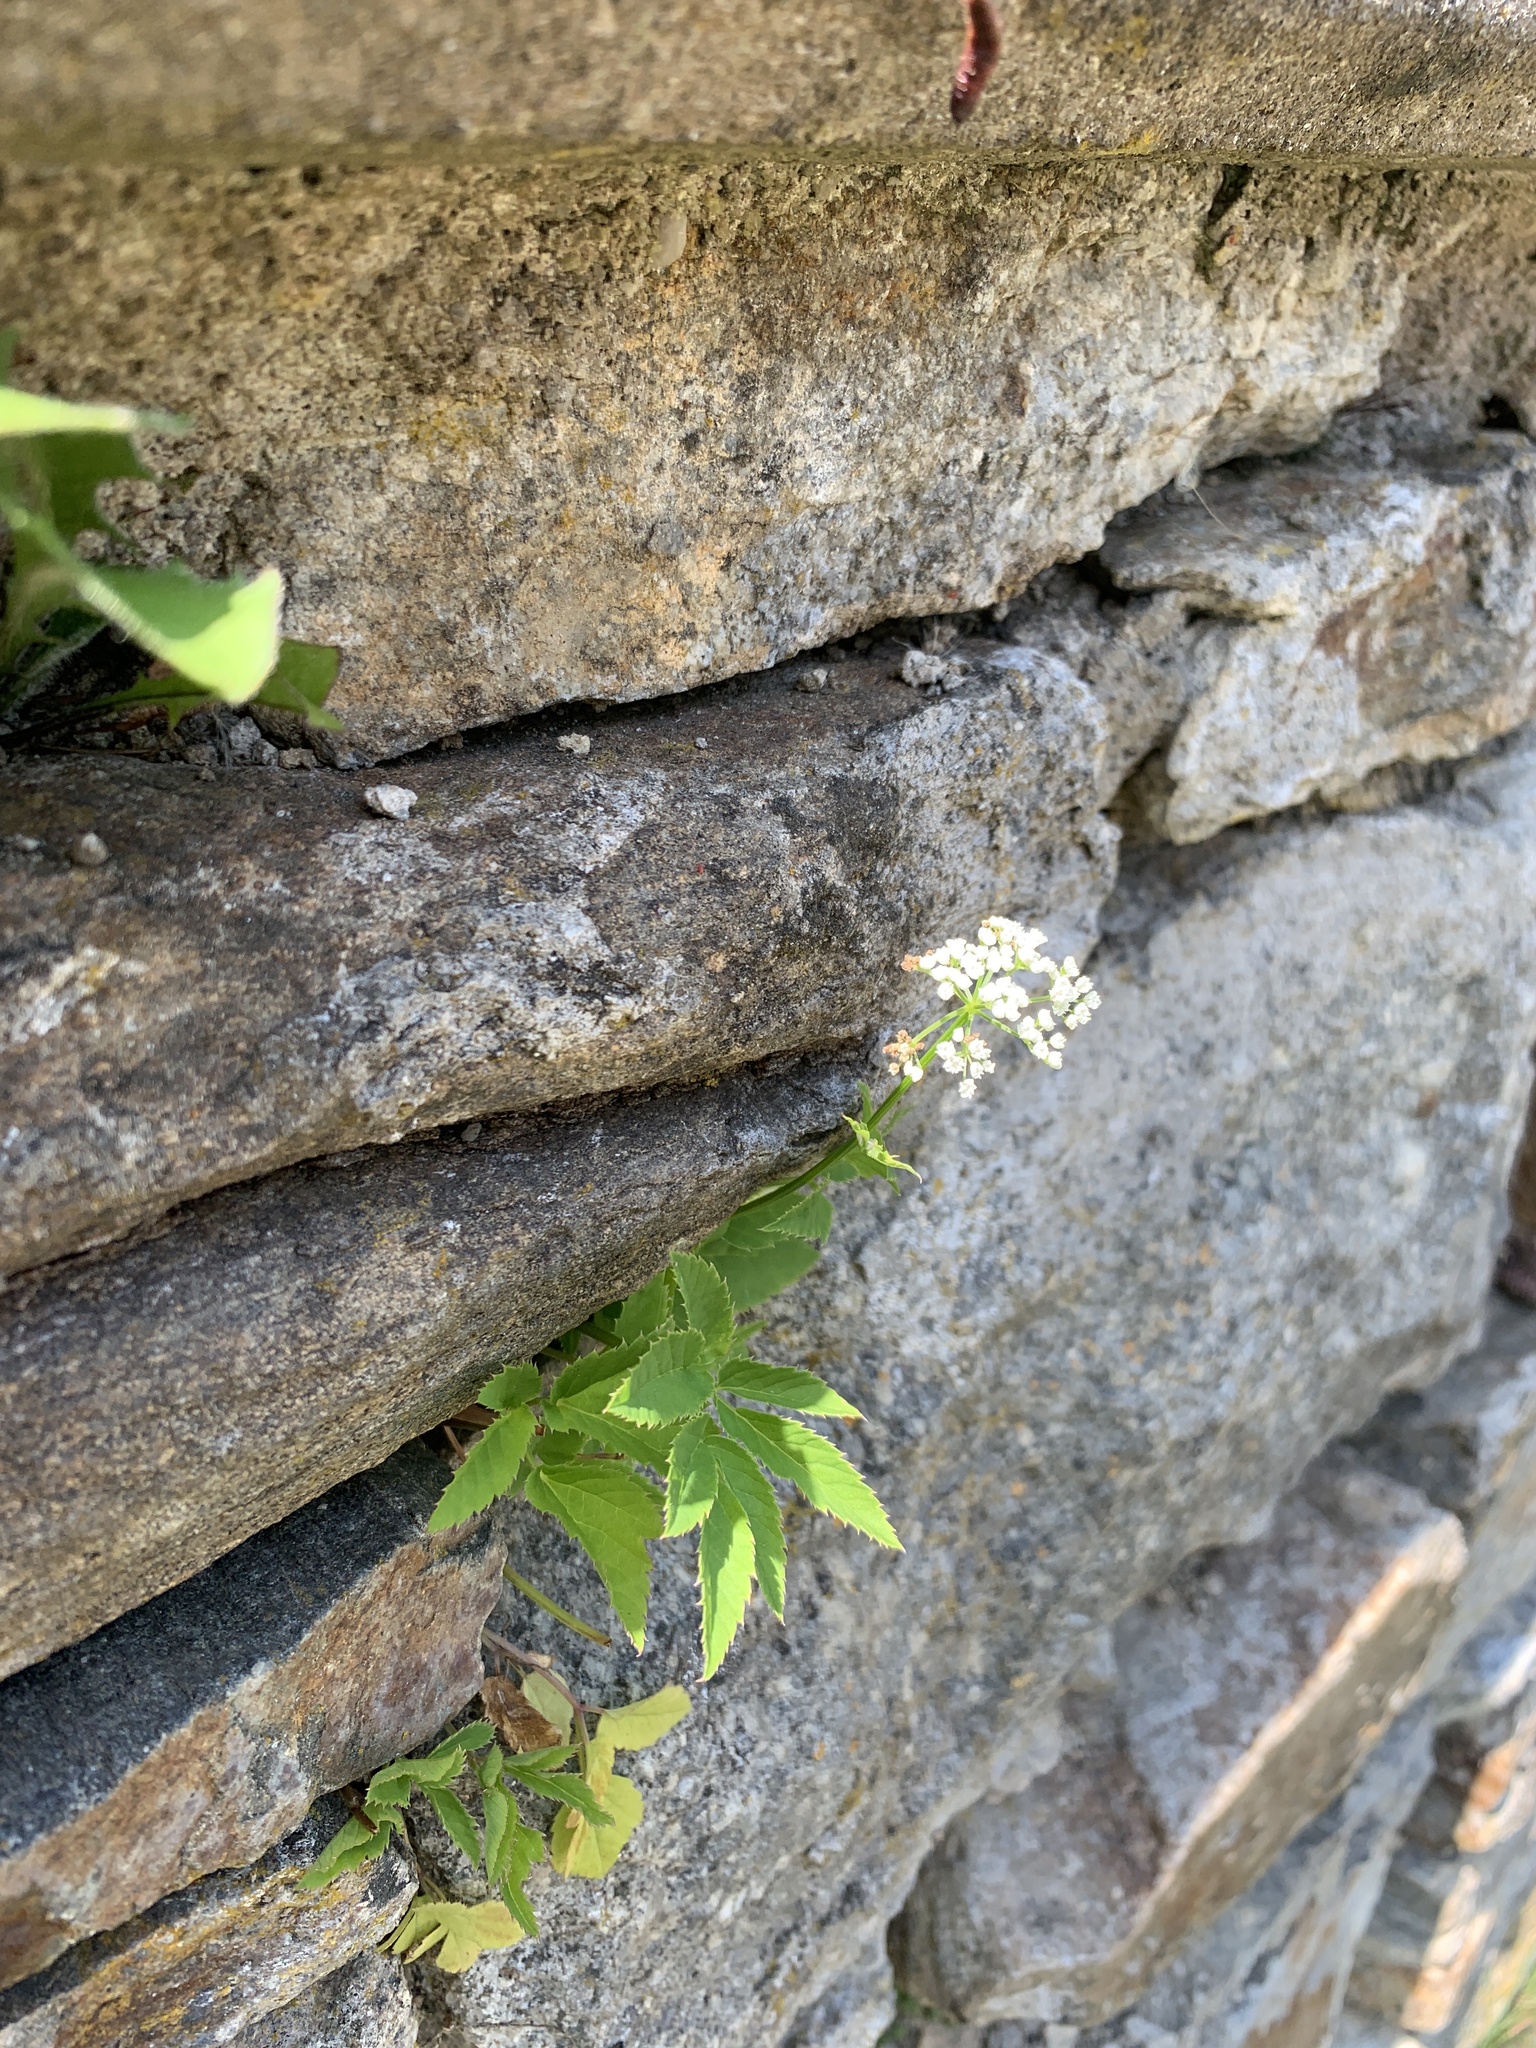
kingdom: Plantae
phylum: Tracheophyta
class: Magnoliopsida
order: Apiales
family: Apiaceae
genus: Aegopodium
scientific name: Aegopodium podagraria
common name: Ground-elder
